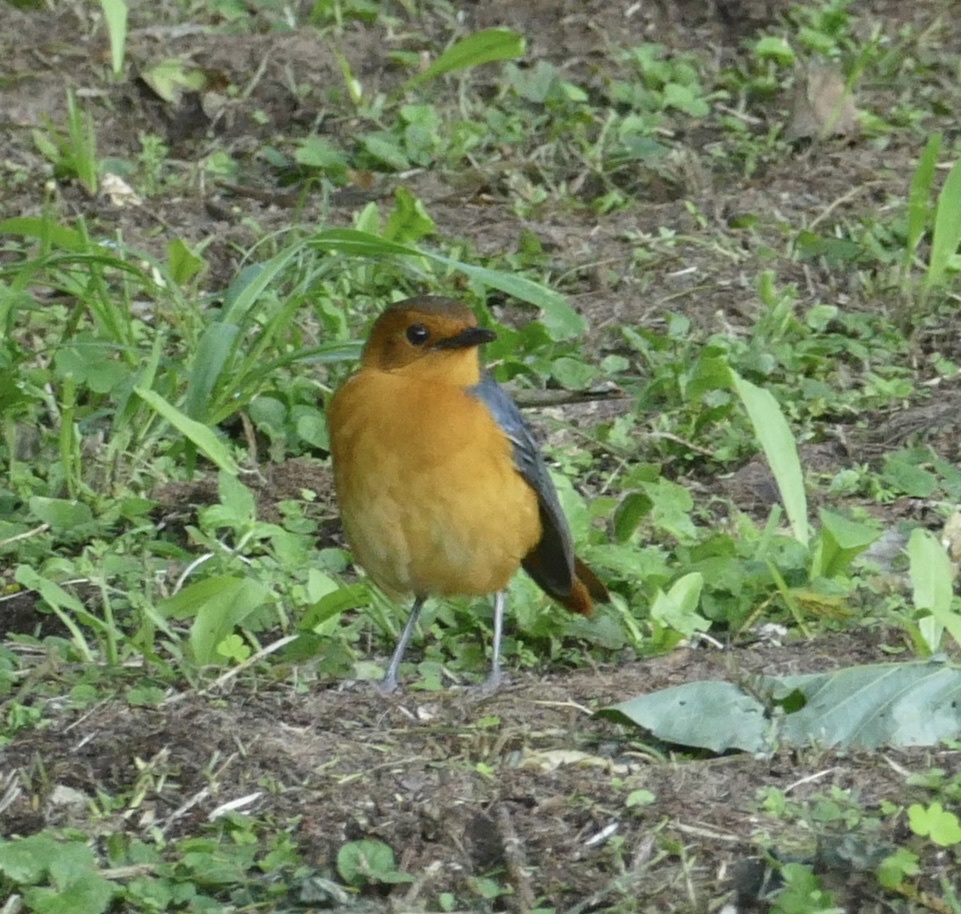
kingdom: Animalia
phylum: Chordata
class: Aves
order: Passeriformes
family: Muscicapidae
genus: Cossypha
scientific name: Cossypha natalensis
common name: Red-capped robin-chat
